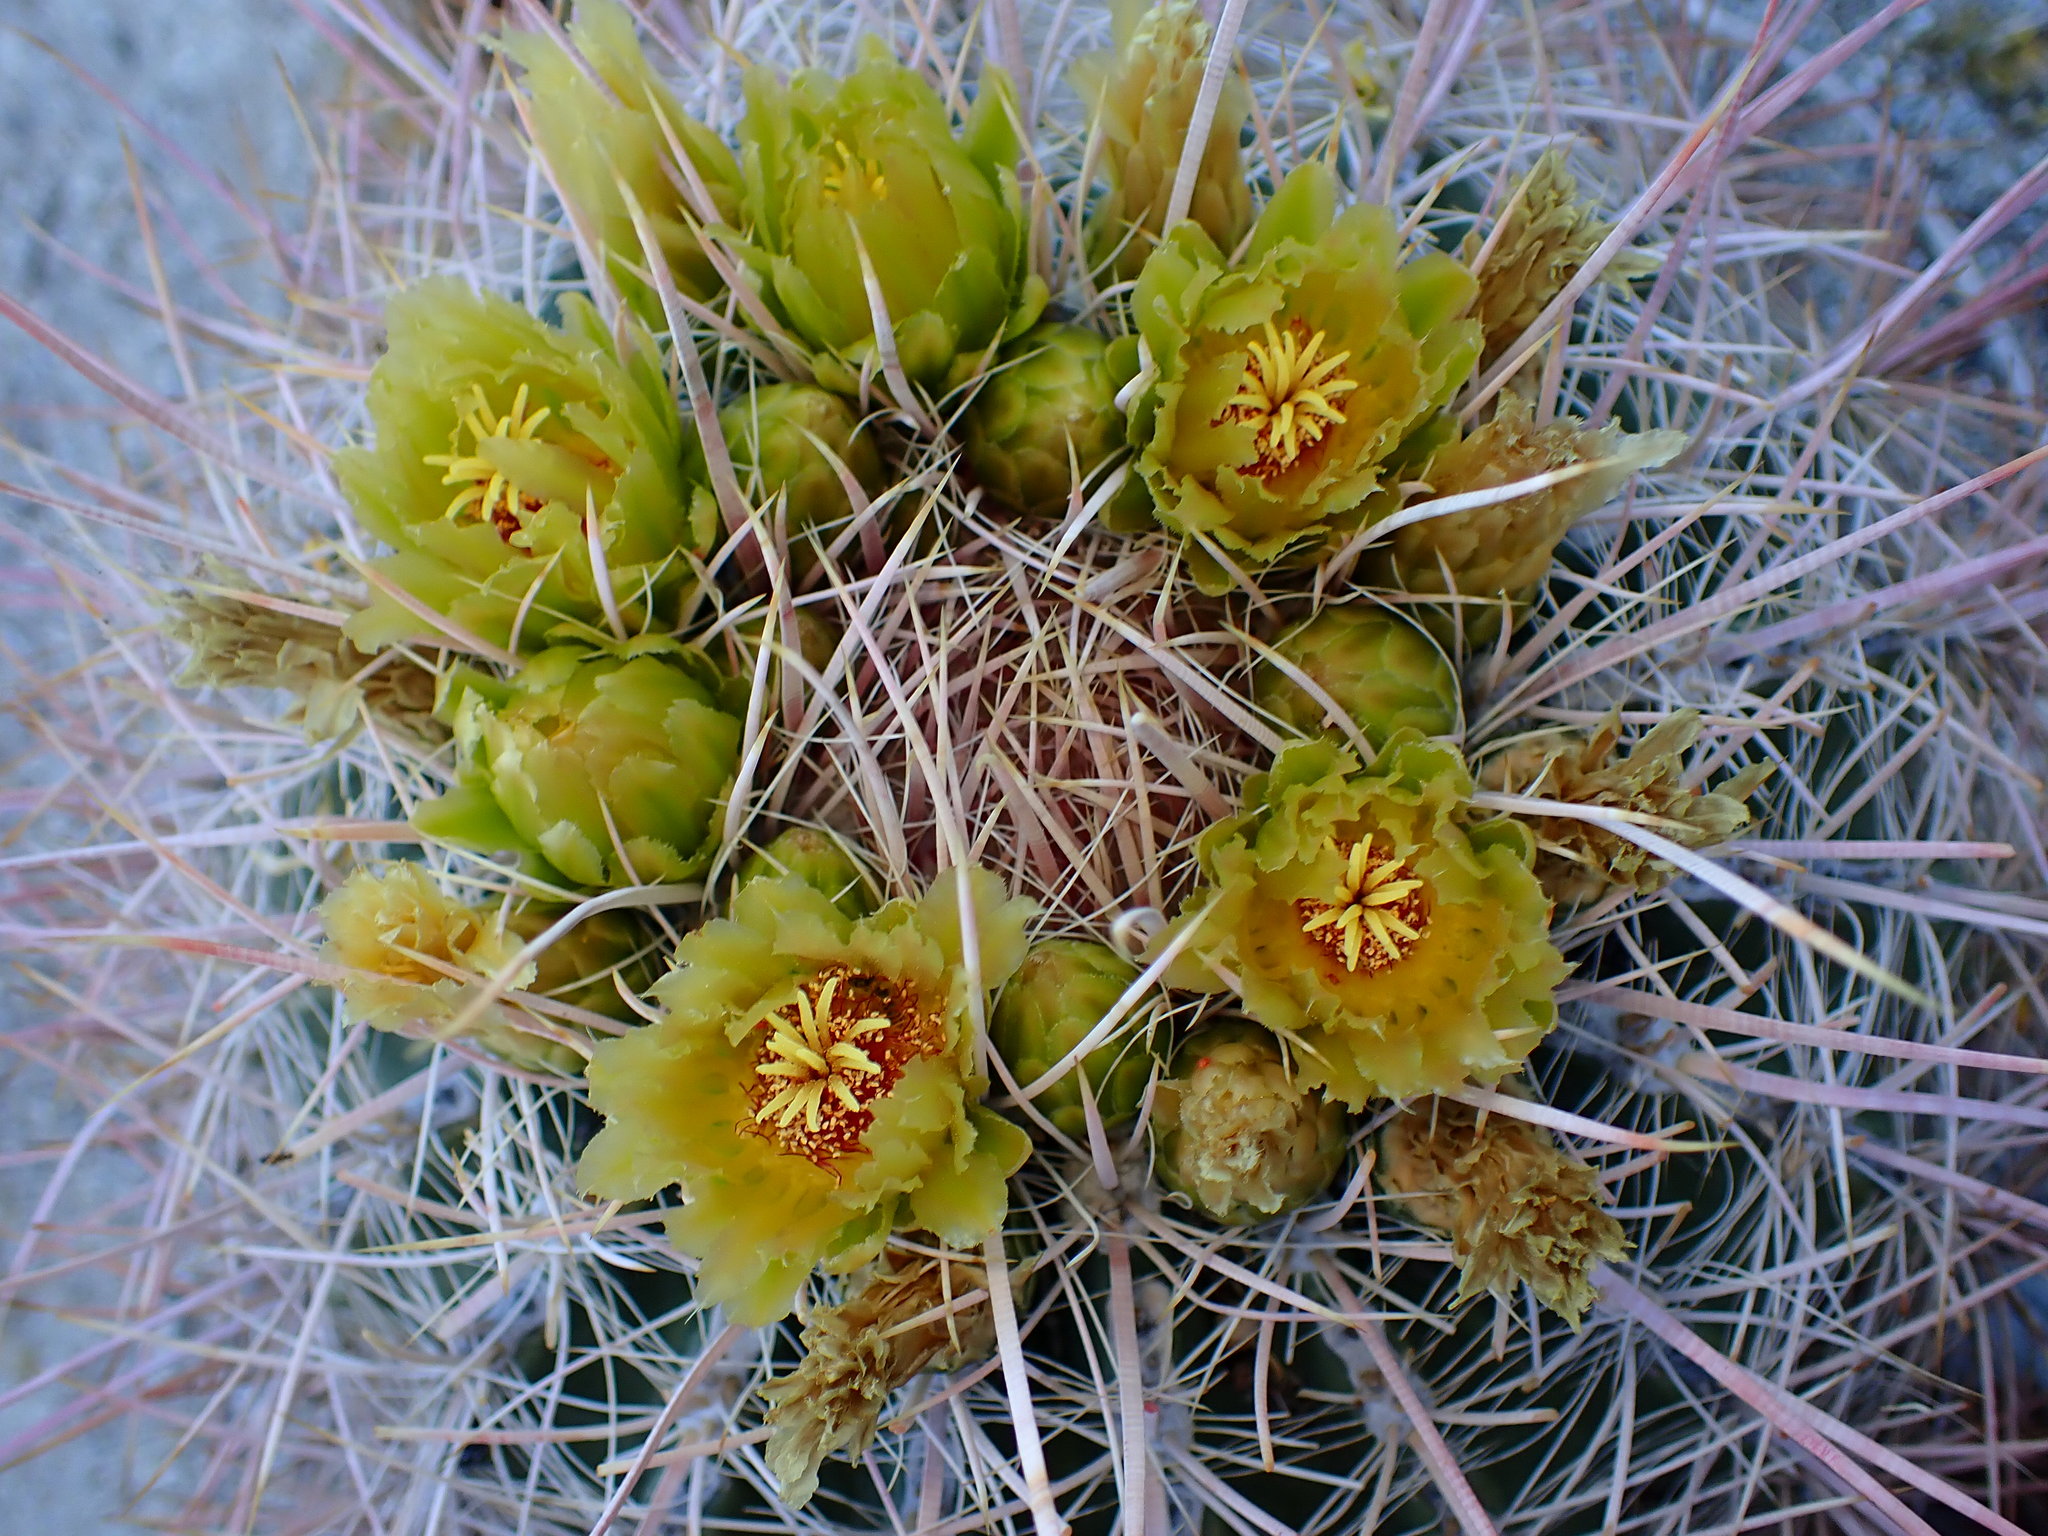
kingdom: Plantae
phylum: Tracheophyta
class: Magnoliopsida
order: Caryophyllales
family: Cactaceae
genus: Ferocactus
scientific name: Ferocactus cylindraceus
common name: California barrel cactus
